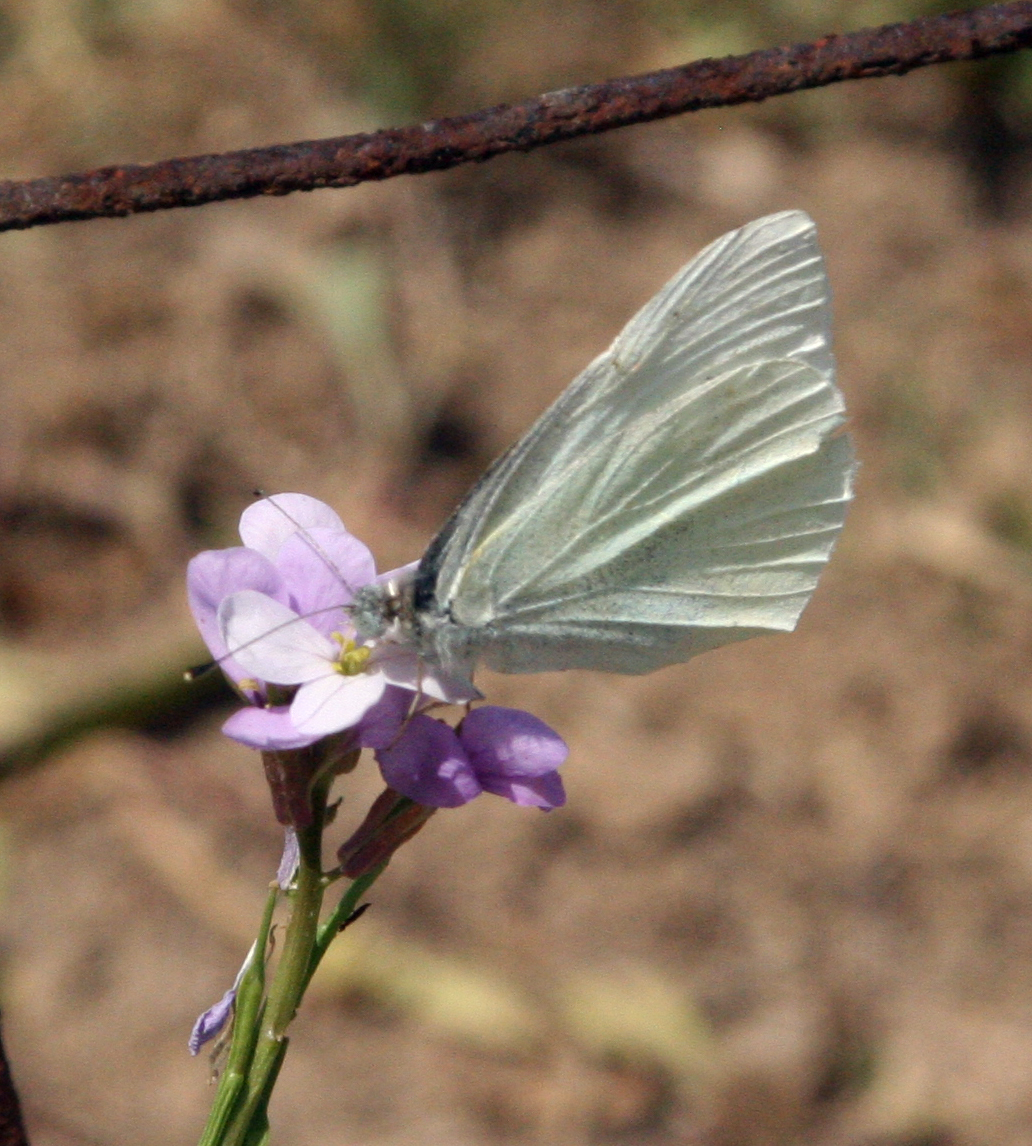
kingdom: Animalia
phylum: Arthropoda
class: Insecta
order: Lepidoptera
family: Pieridae
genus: Pieris
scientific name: Pieris rapae
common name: Small white
